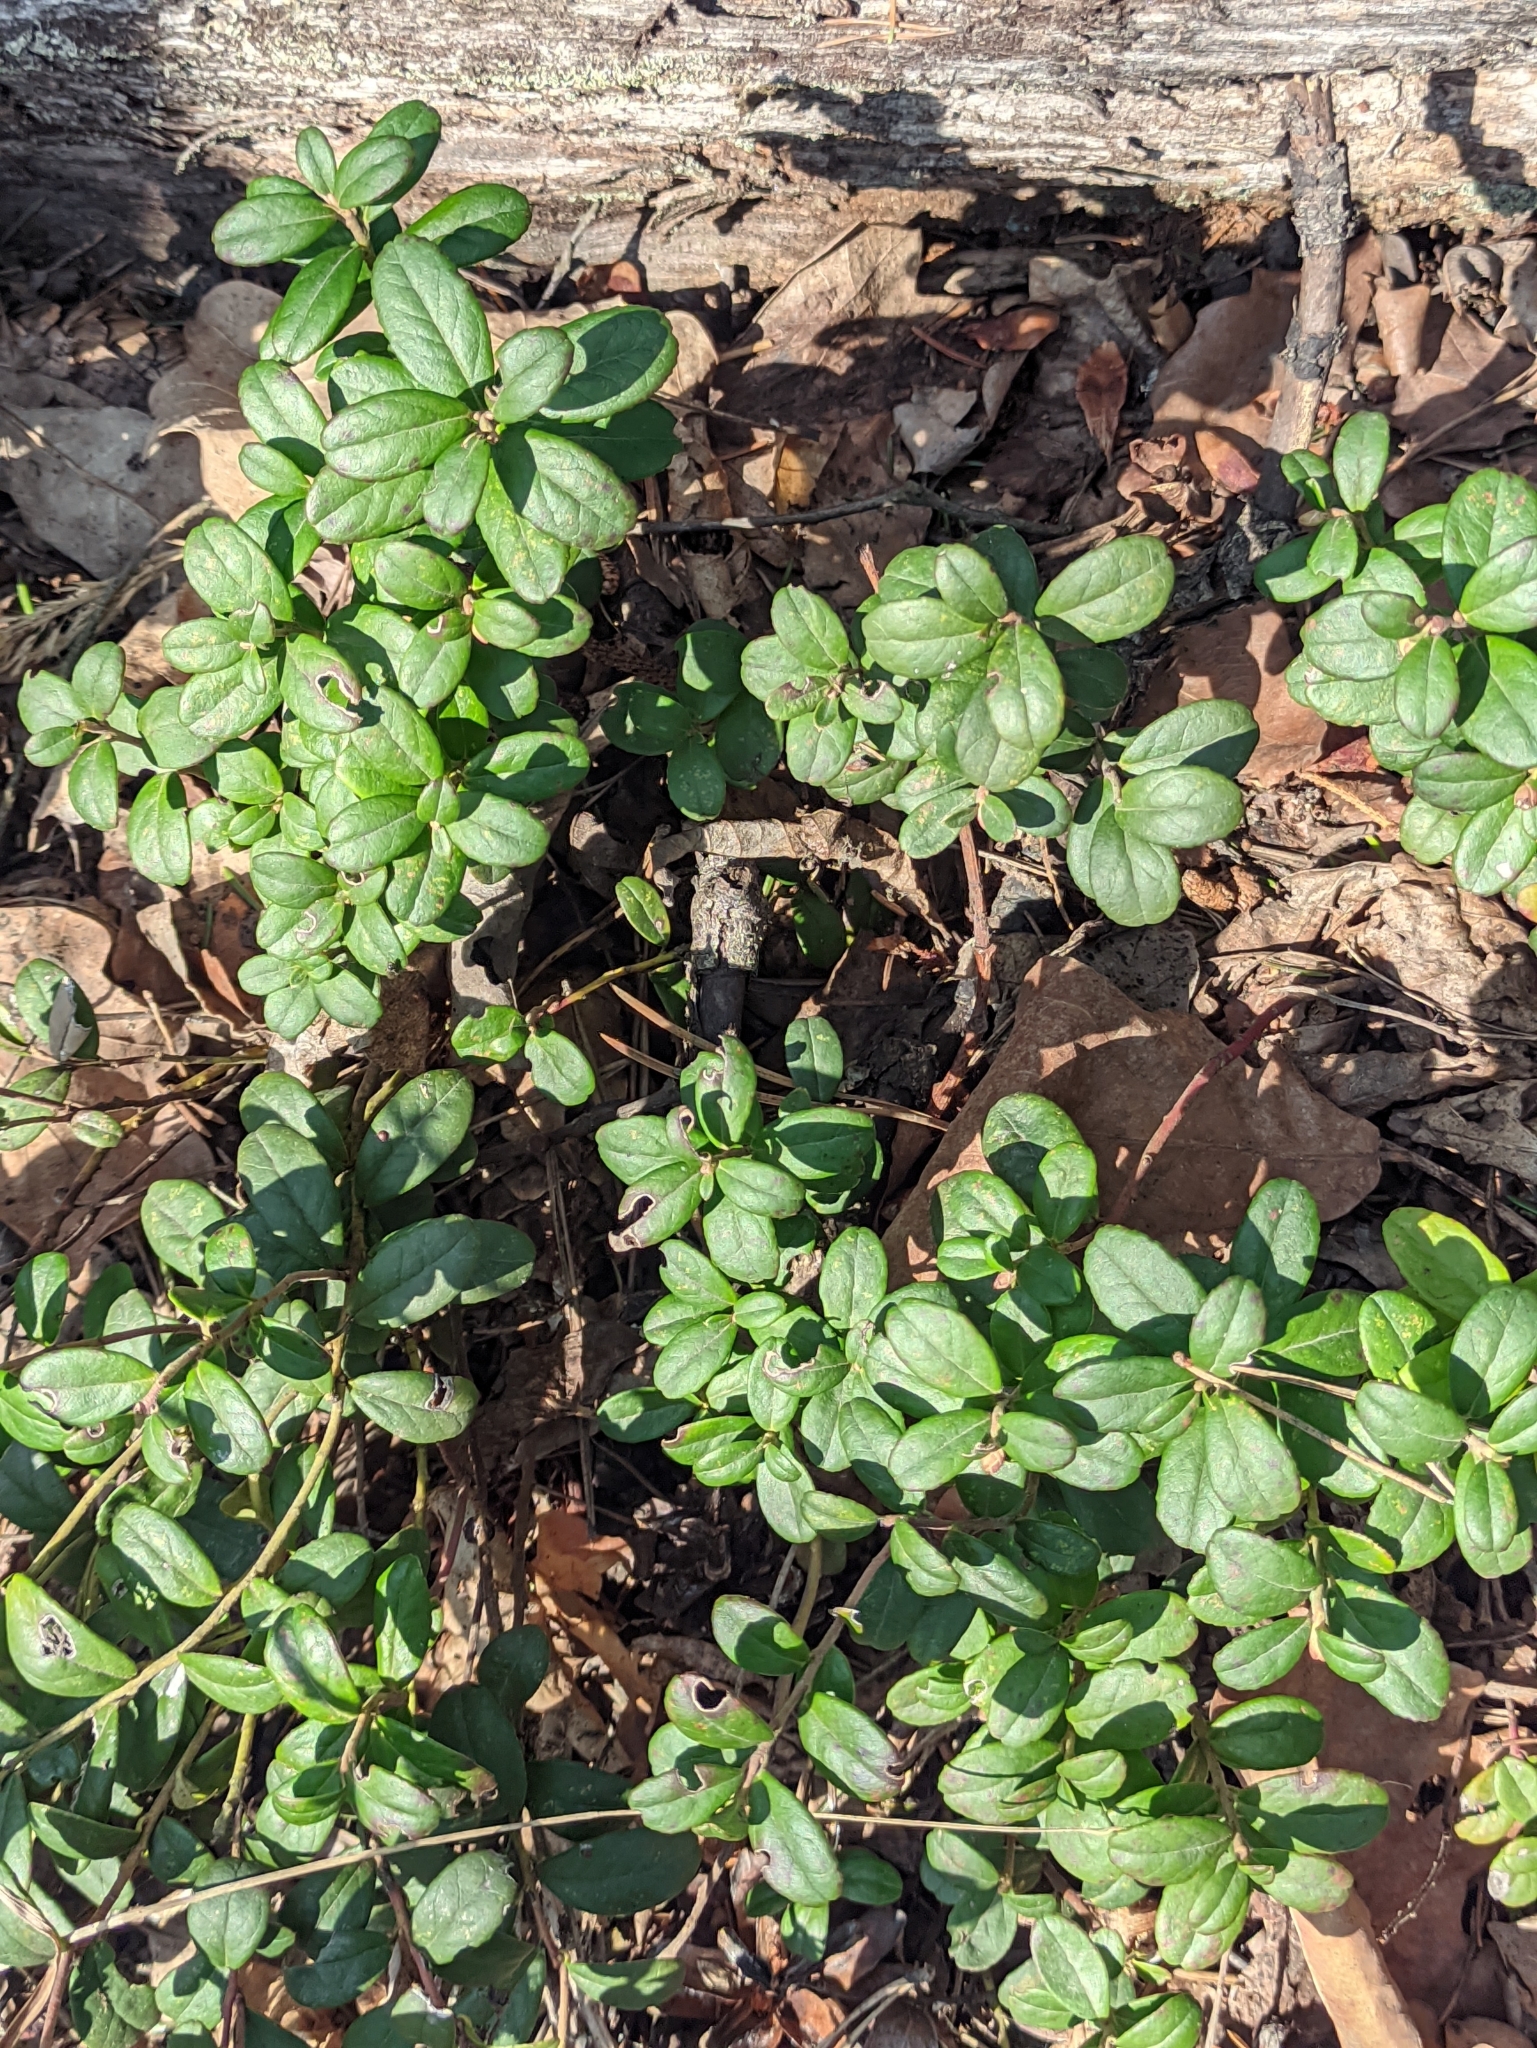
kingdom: Plantae
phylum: Tracheophyta
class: Magnoliopsida
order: Ericales
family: Ericaceae
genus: Vaccinium
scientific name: Vaccinium vitis-idaea
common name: Cowberry
